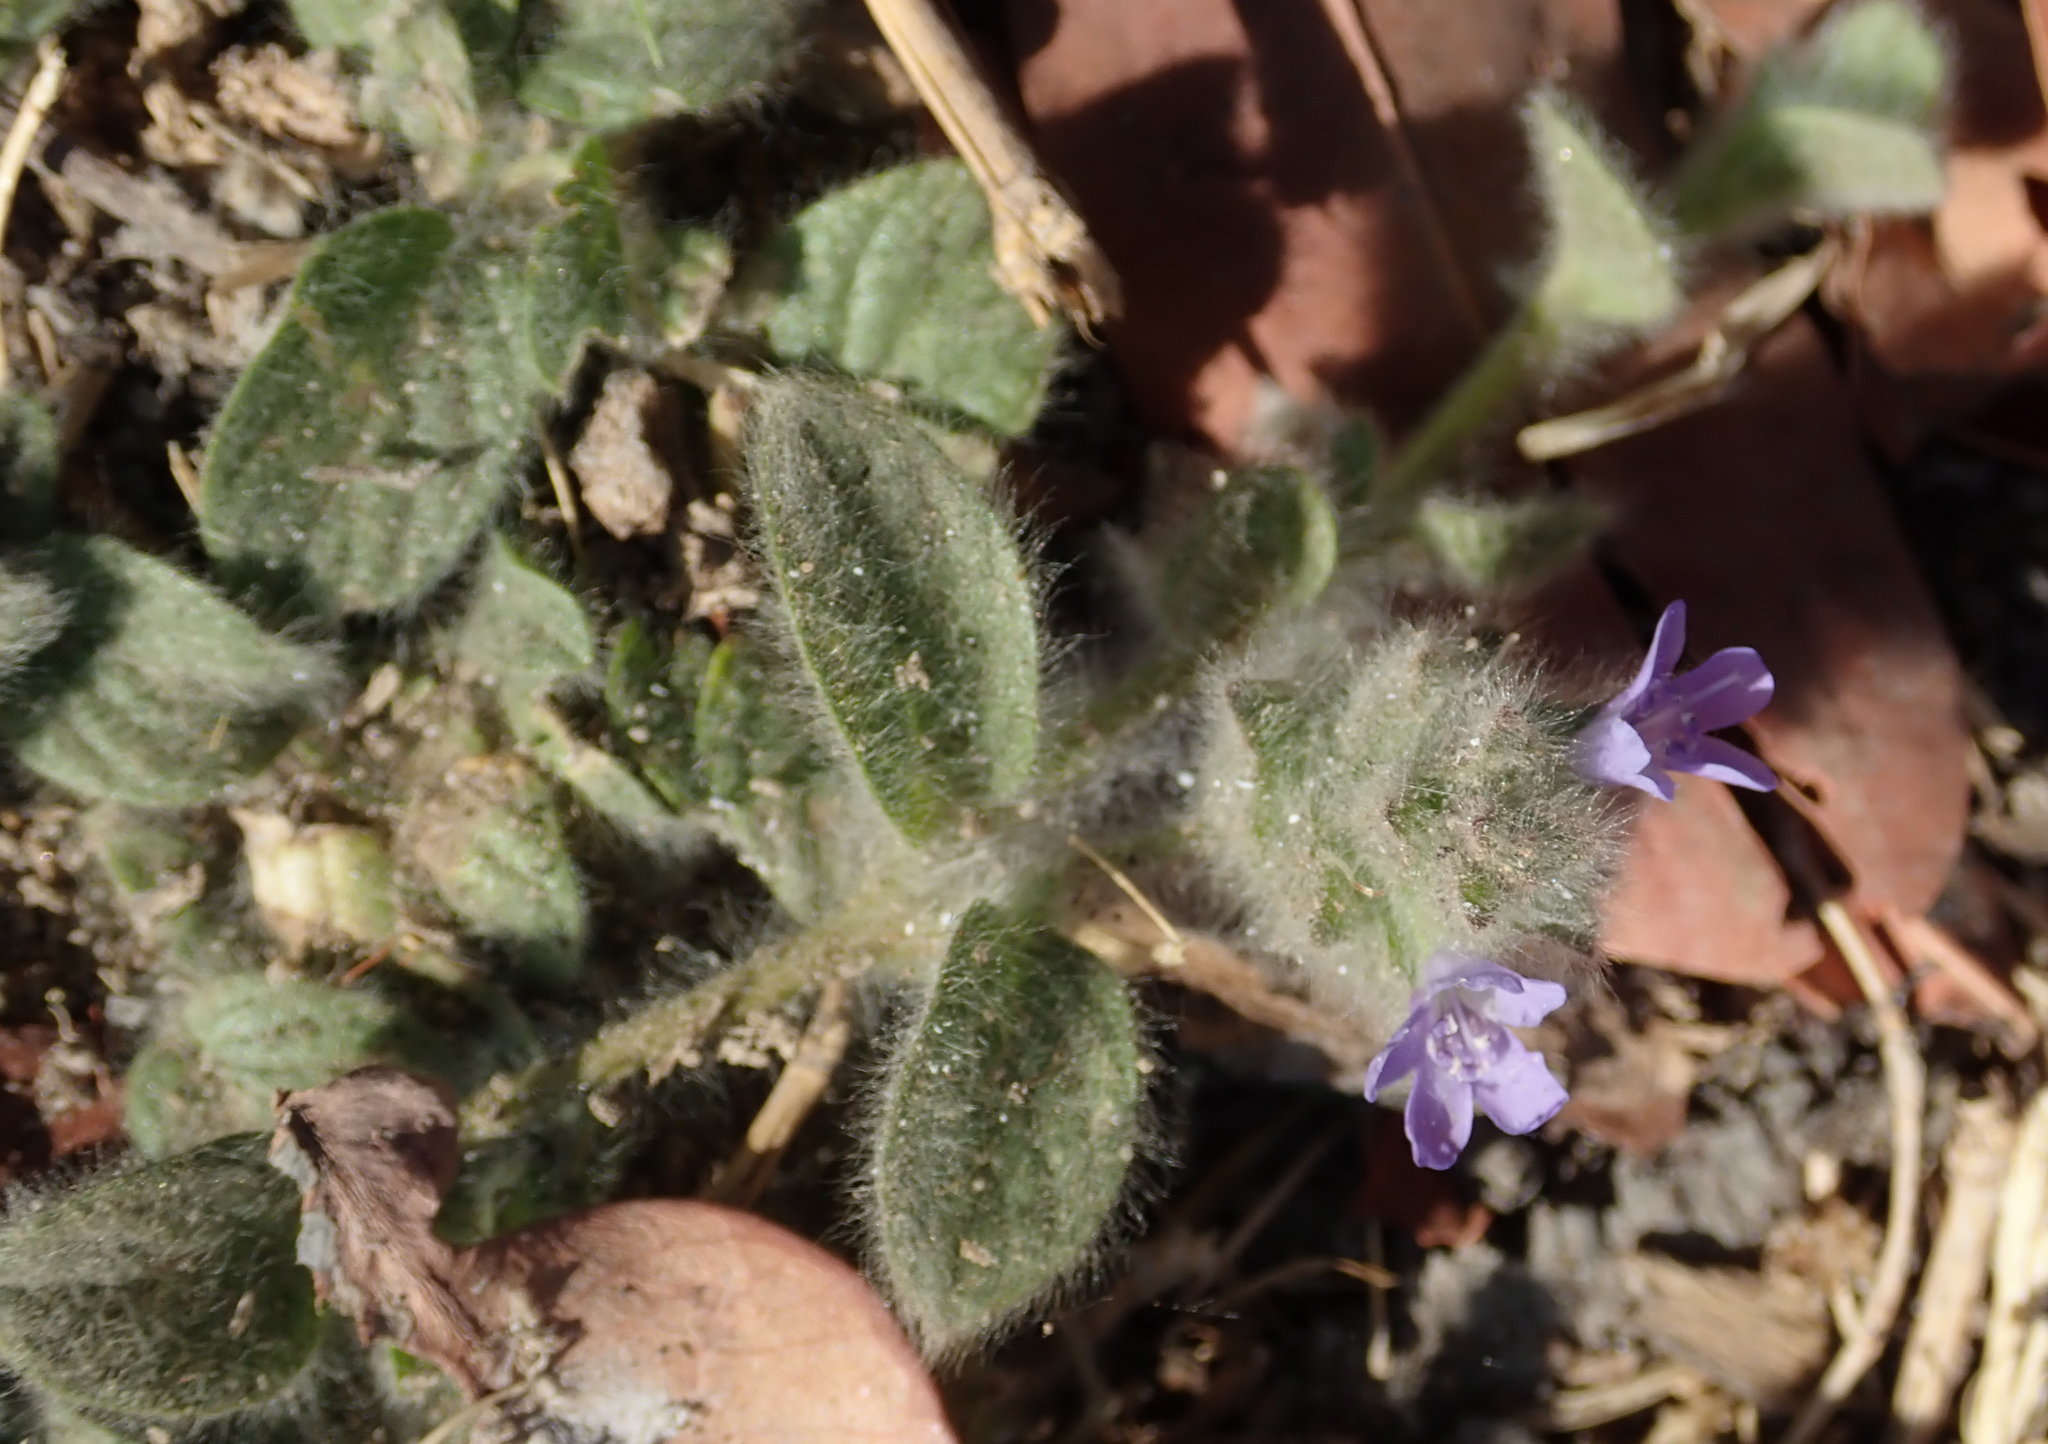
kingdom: Plantae
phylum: Tracheophyta
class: Magnoliopsida
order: Lamiales
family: Acanthaceae
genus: Nelsonia
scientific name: Nelsonia canescens
